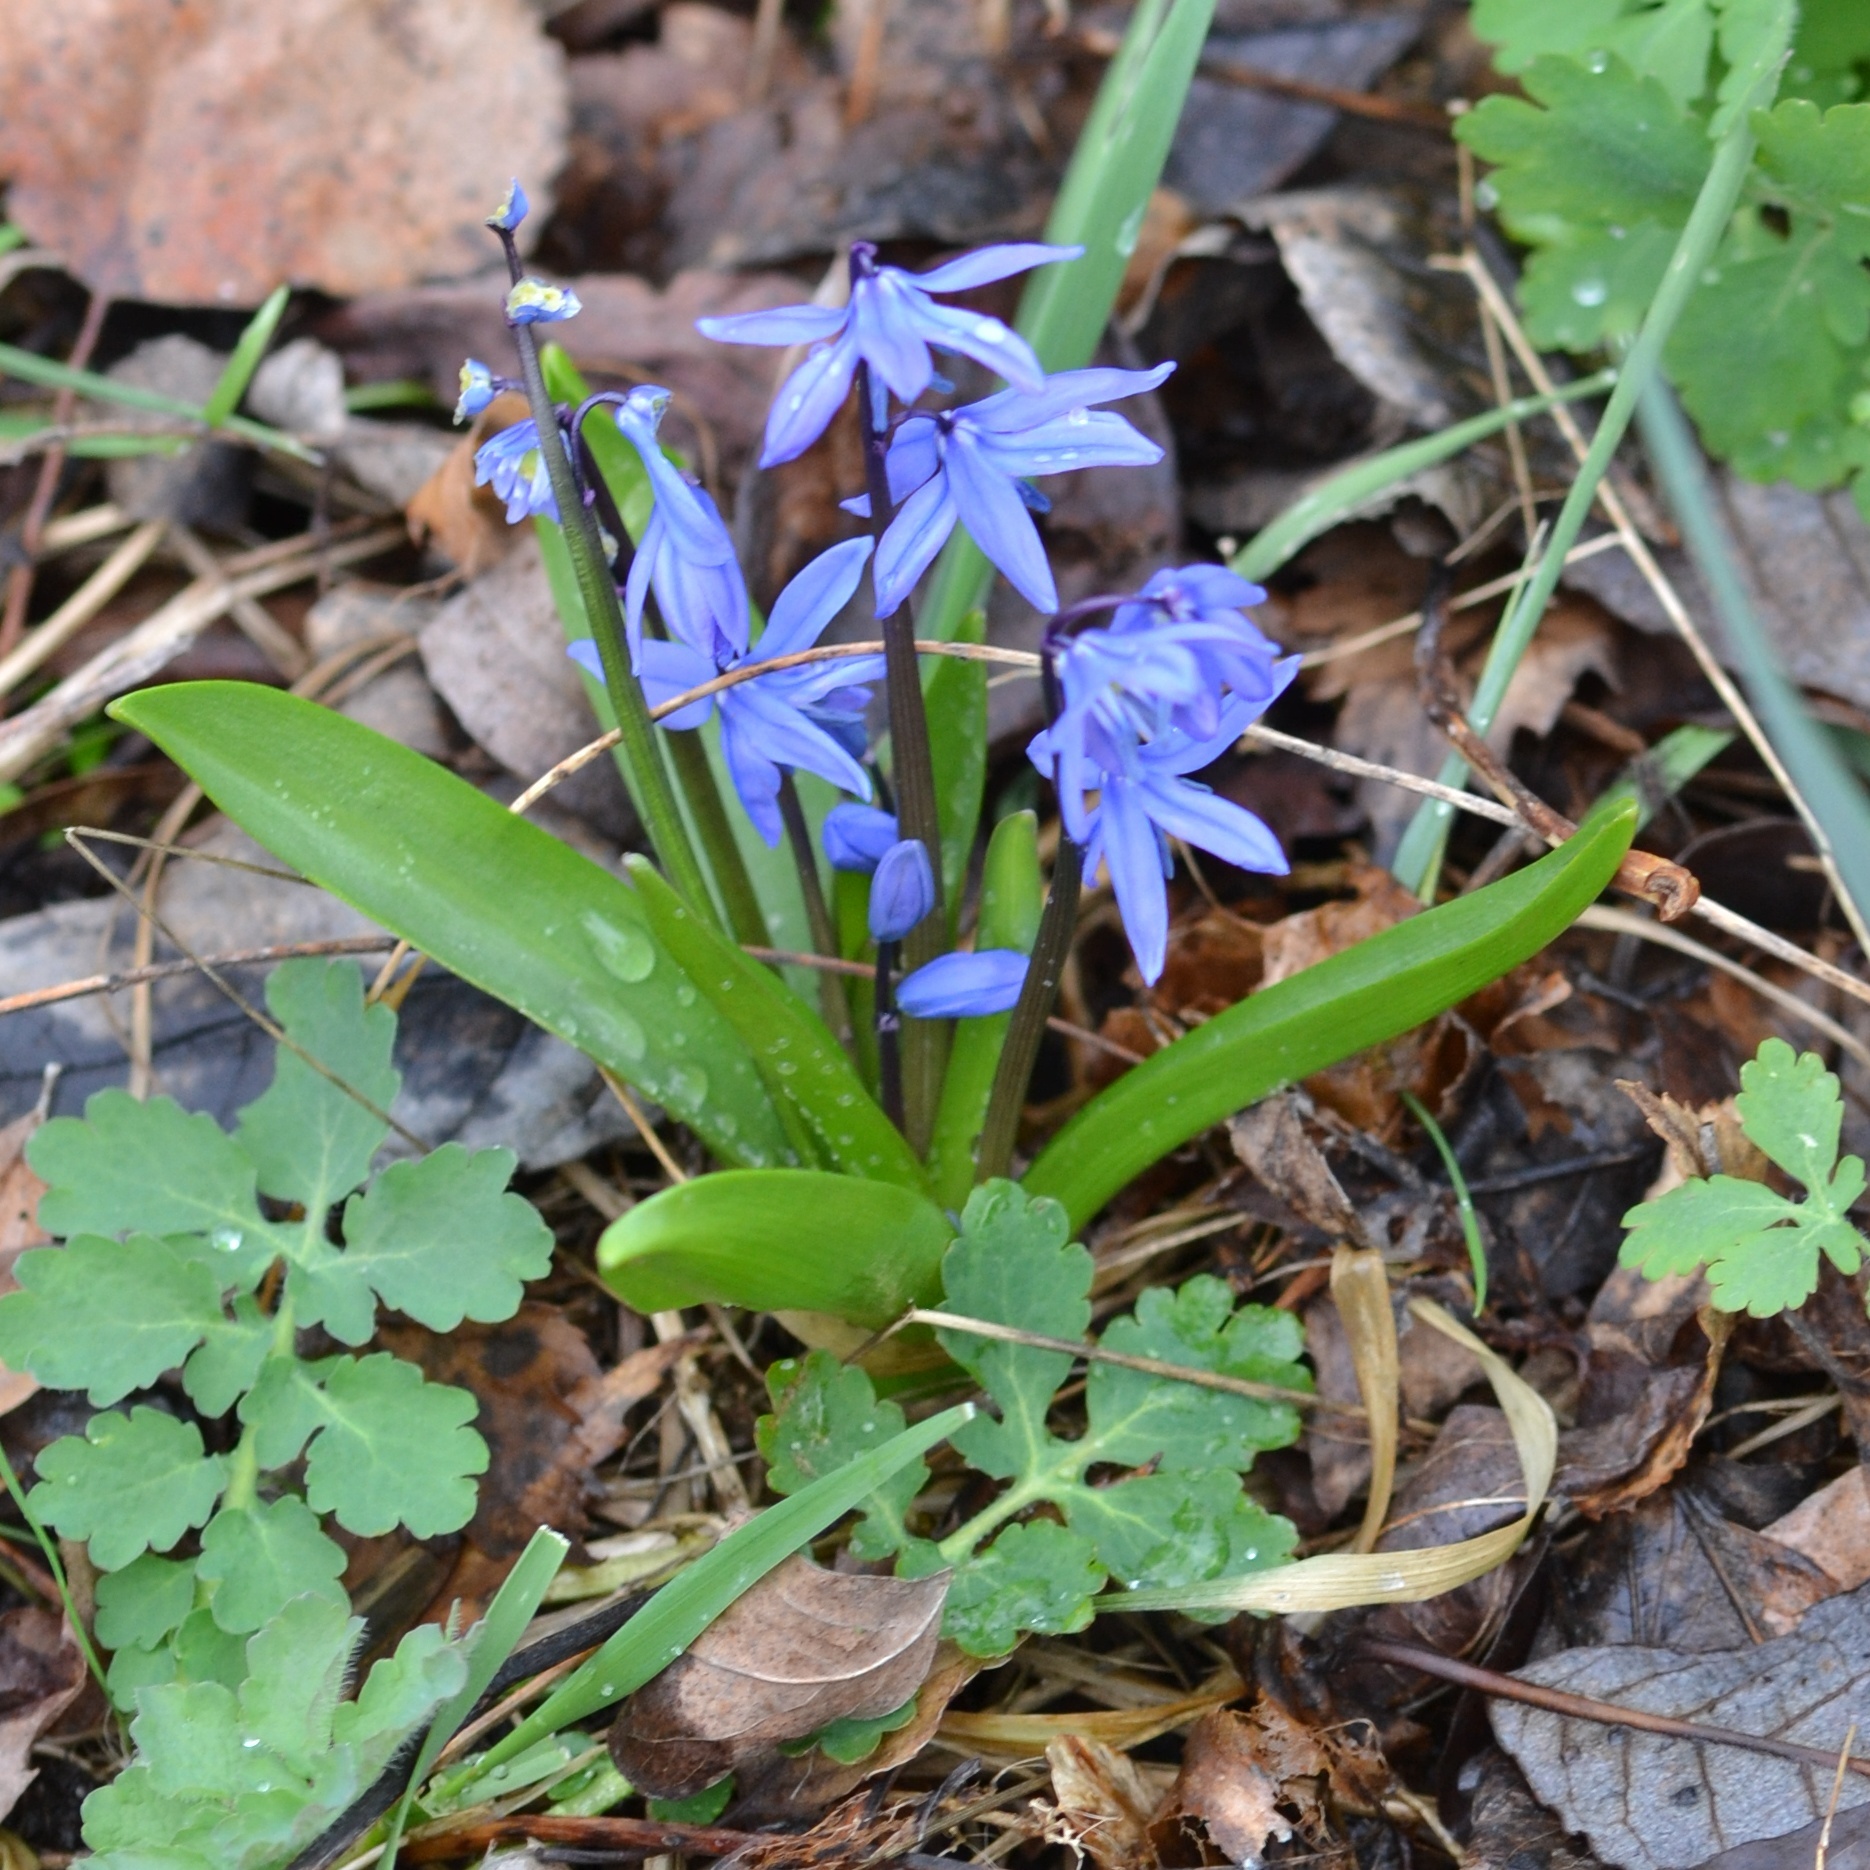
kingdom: Plantae
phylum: Tracheophyta
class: Liliopsida
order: Asparagales
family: Asparagaceae
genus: Scilla
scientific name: Scilla siberica
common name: Siberian squill
